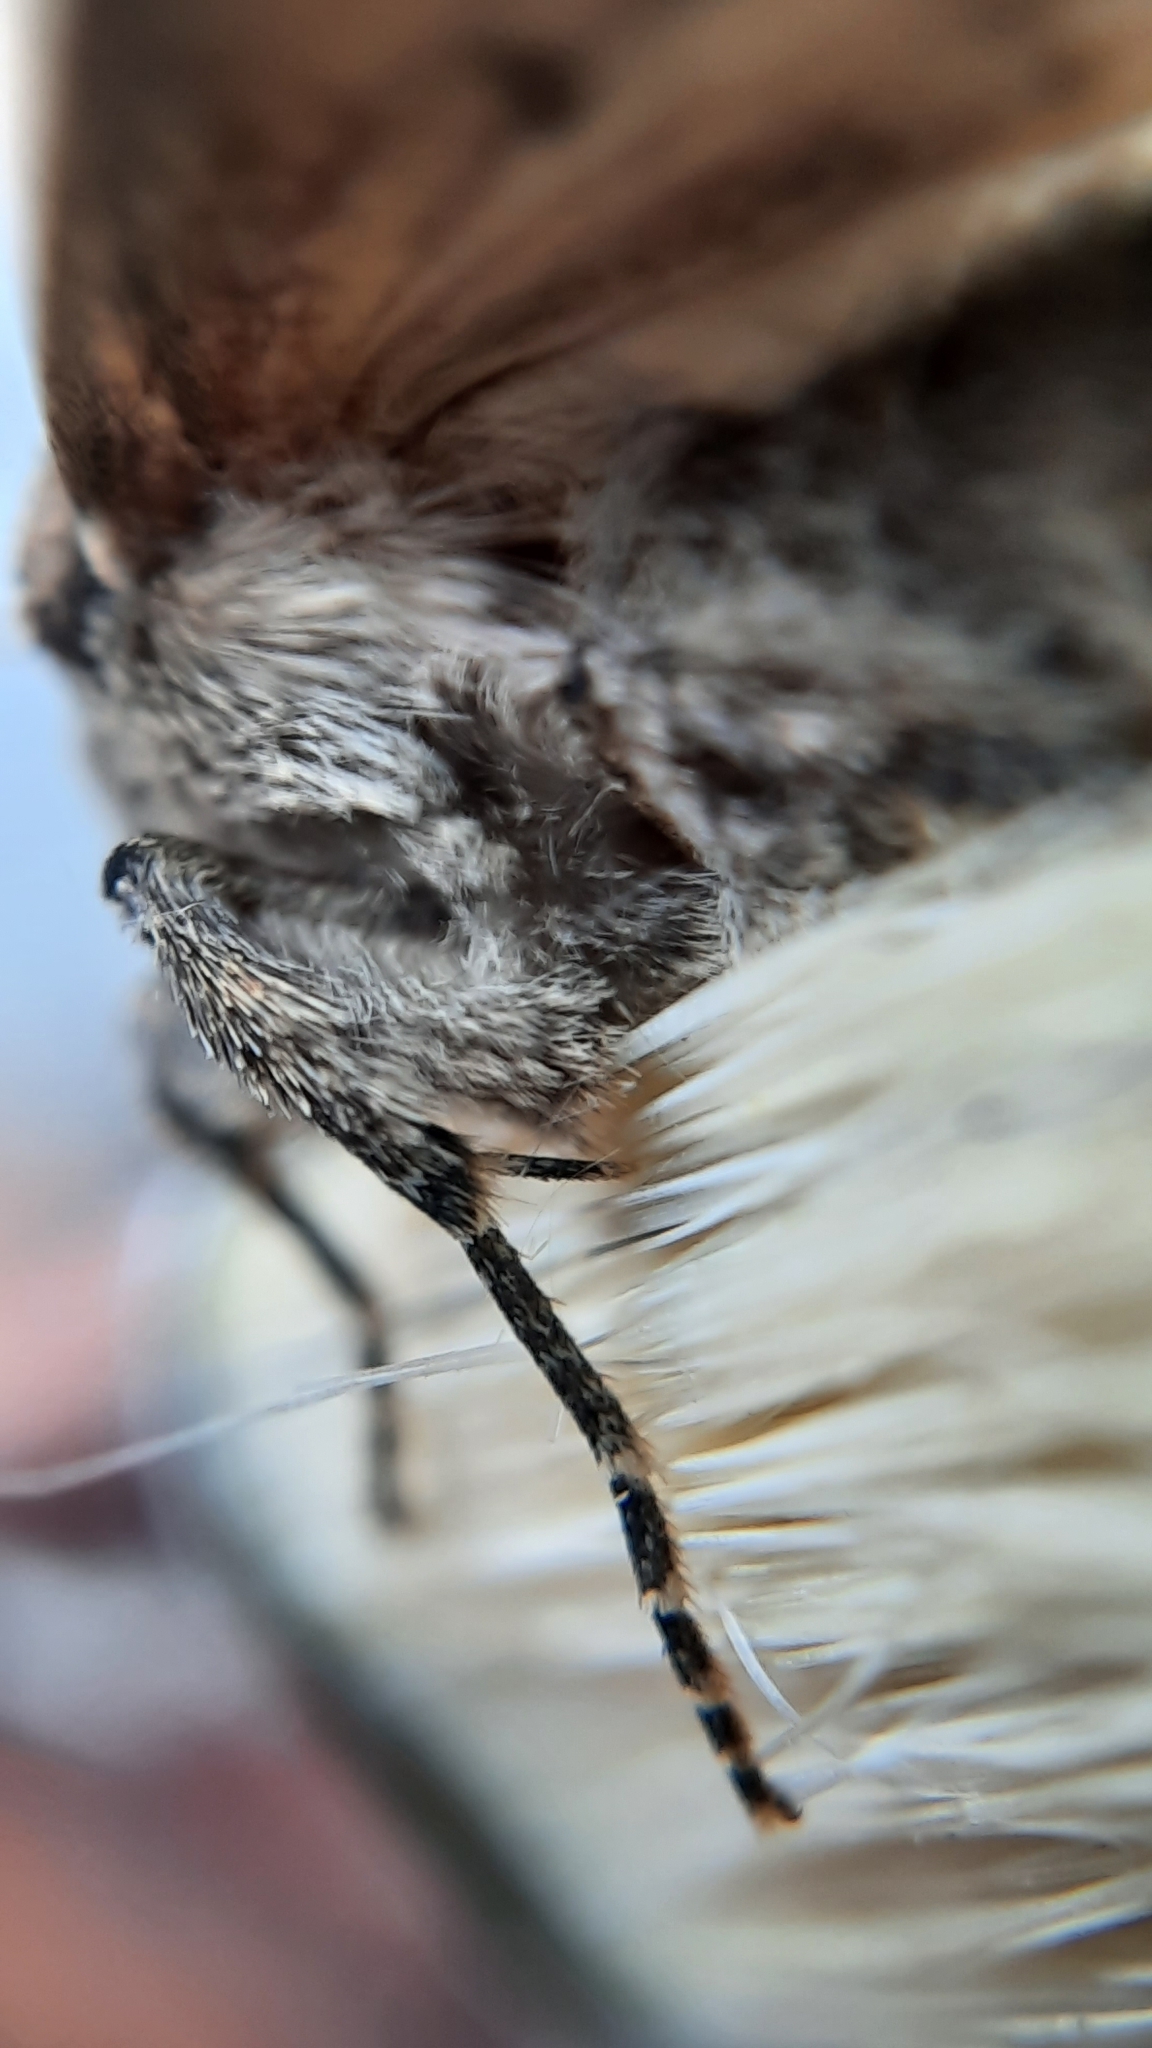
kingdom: Animalia
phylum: Arthropoda
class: Insecta
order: Lepidoptera
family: Noctuidae
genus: Mamestra
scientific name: Mamestra brassicae
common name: Cabbage moth
